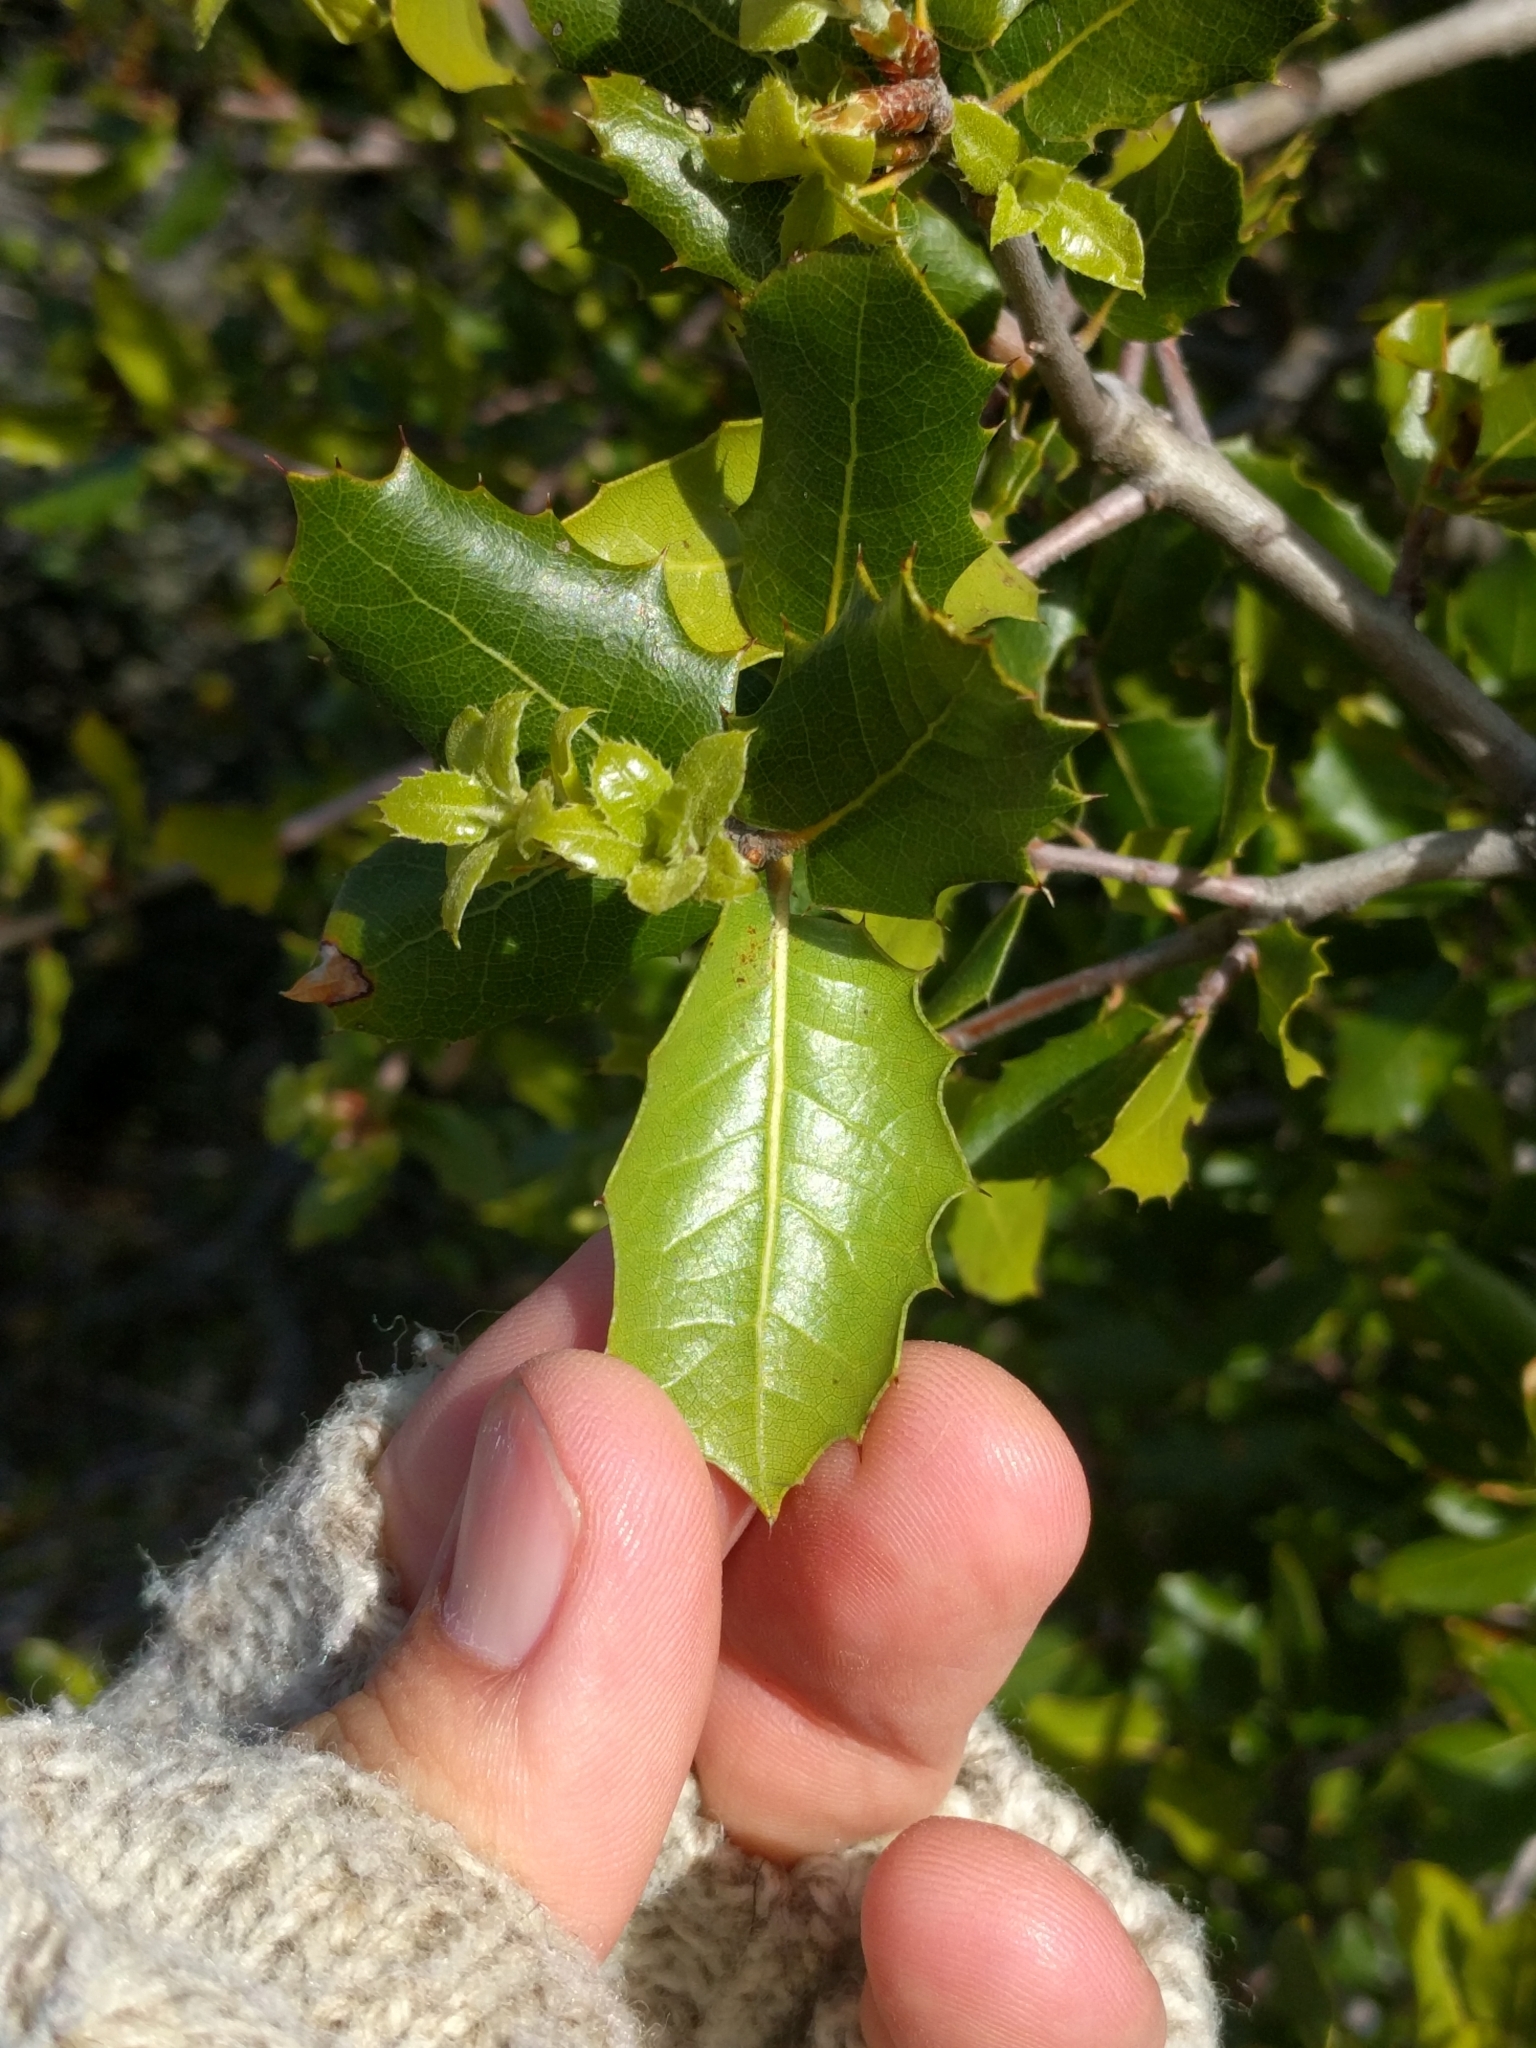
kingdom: Plantae
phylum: Tracheophyta
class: Magnoliopsida
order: Fagales
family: Fagaceae
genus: Quercus
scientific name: Quercus wislizeni
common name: Interior live oak
